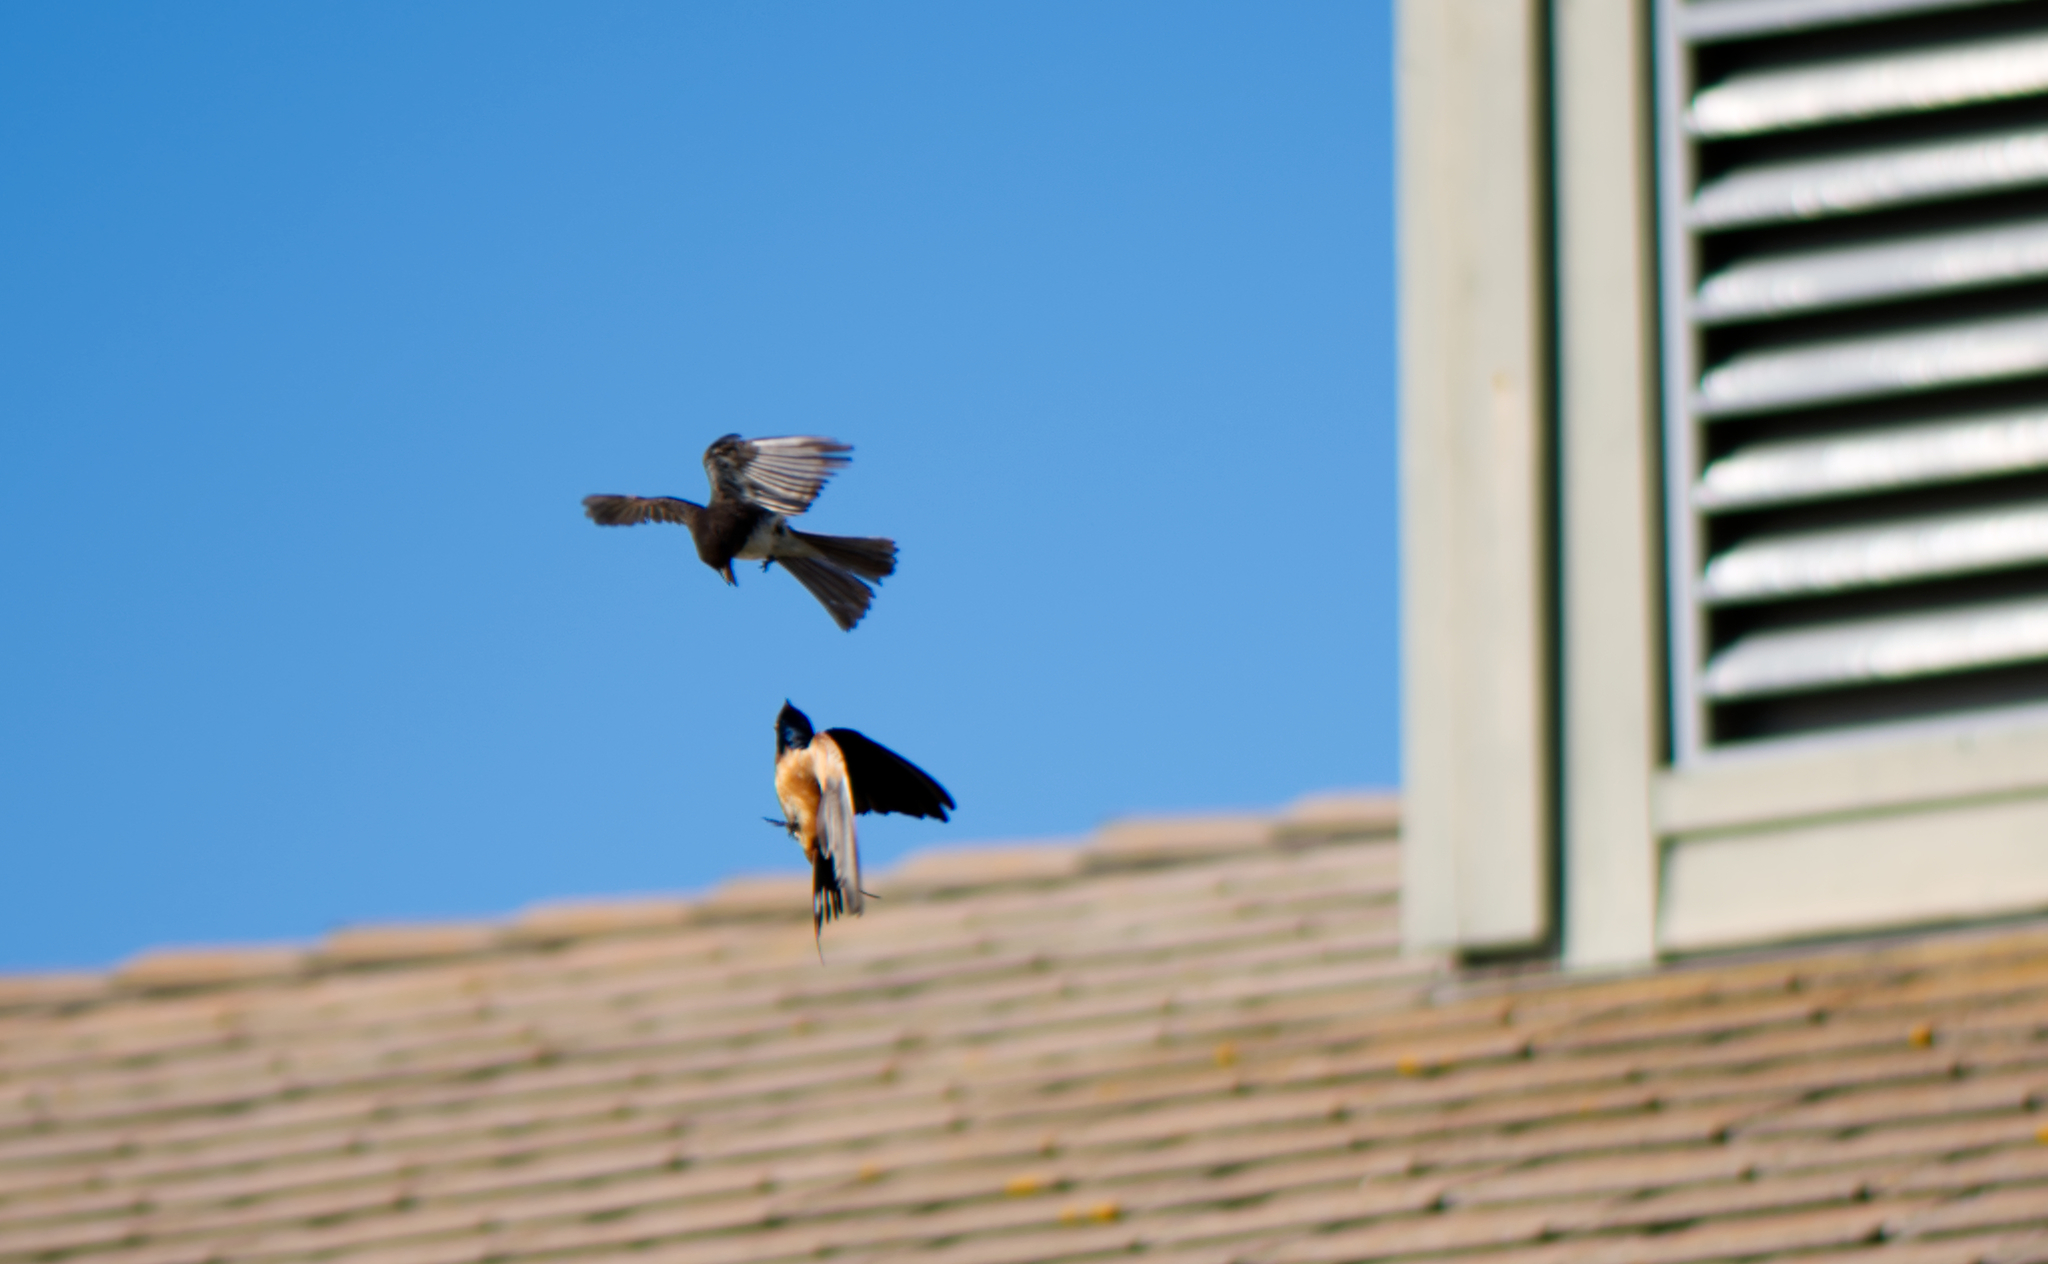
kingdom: Animalia
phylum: Chordata
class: Aves
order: Passeriformes
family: Tyrannidae
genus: Sayornis
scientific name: Sayornis nigricans
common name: Black phoebe
